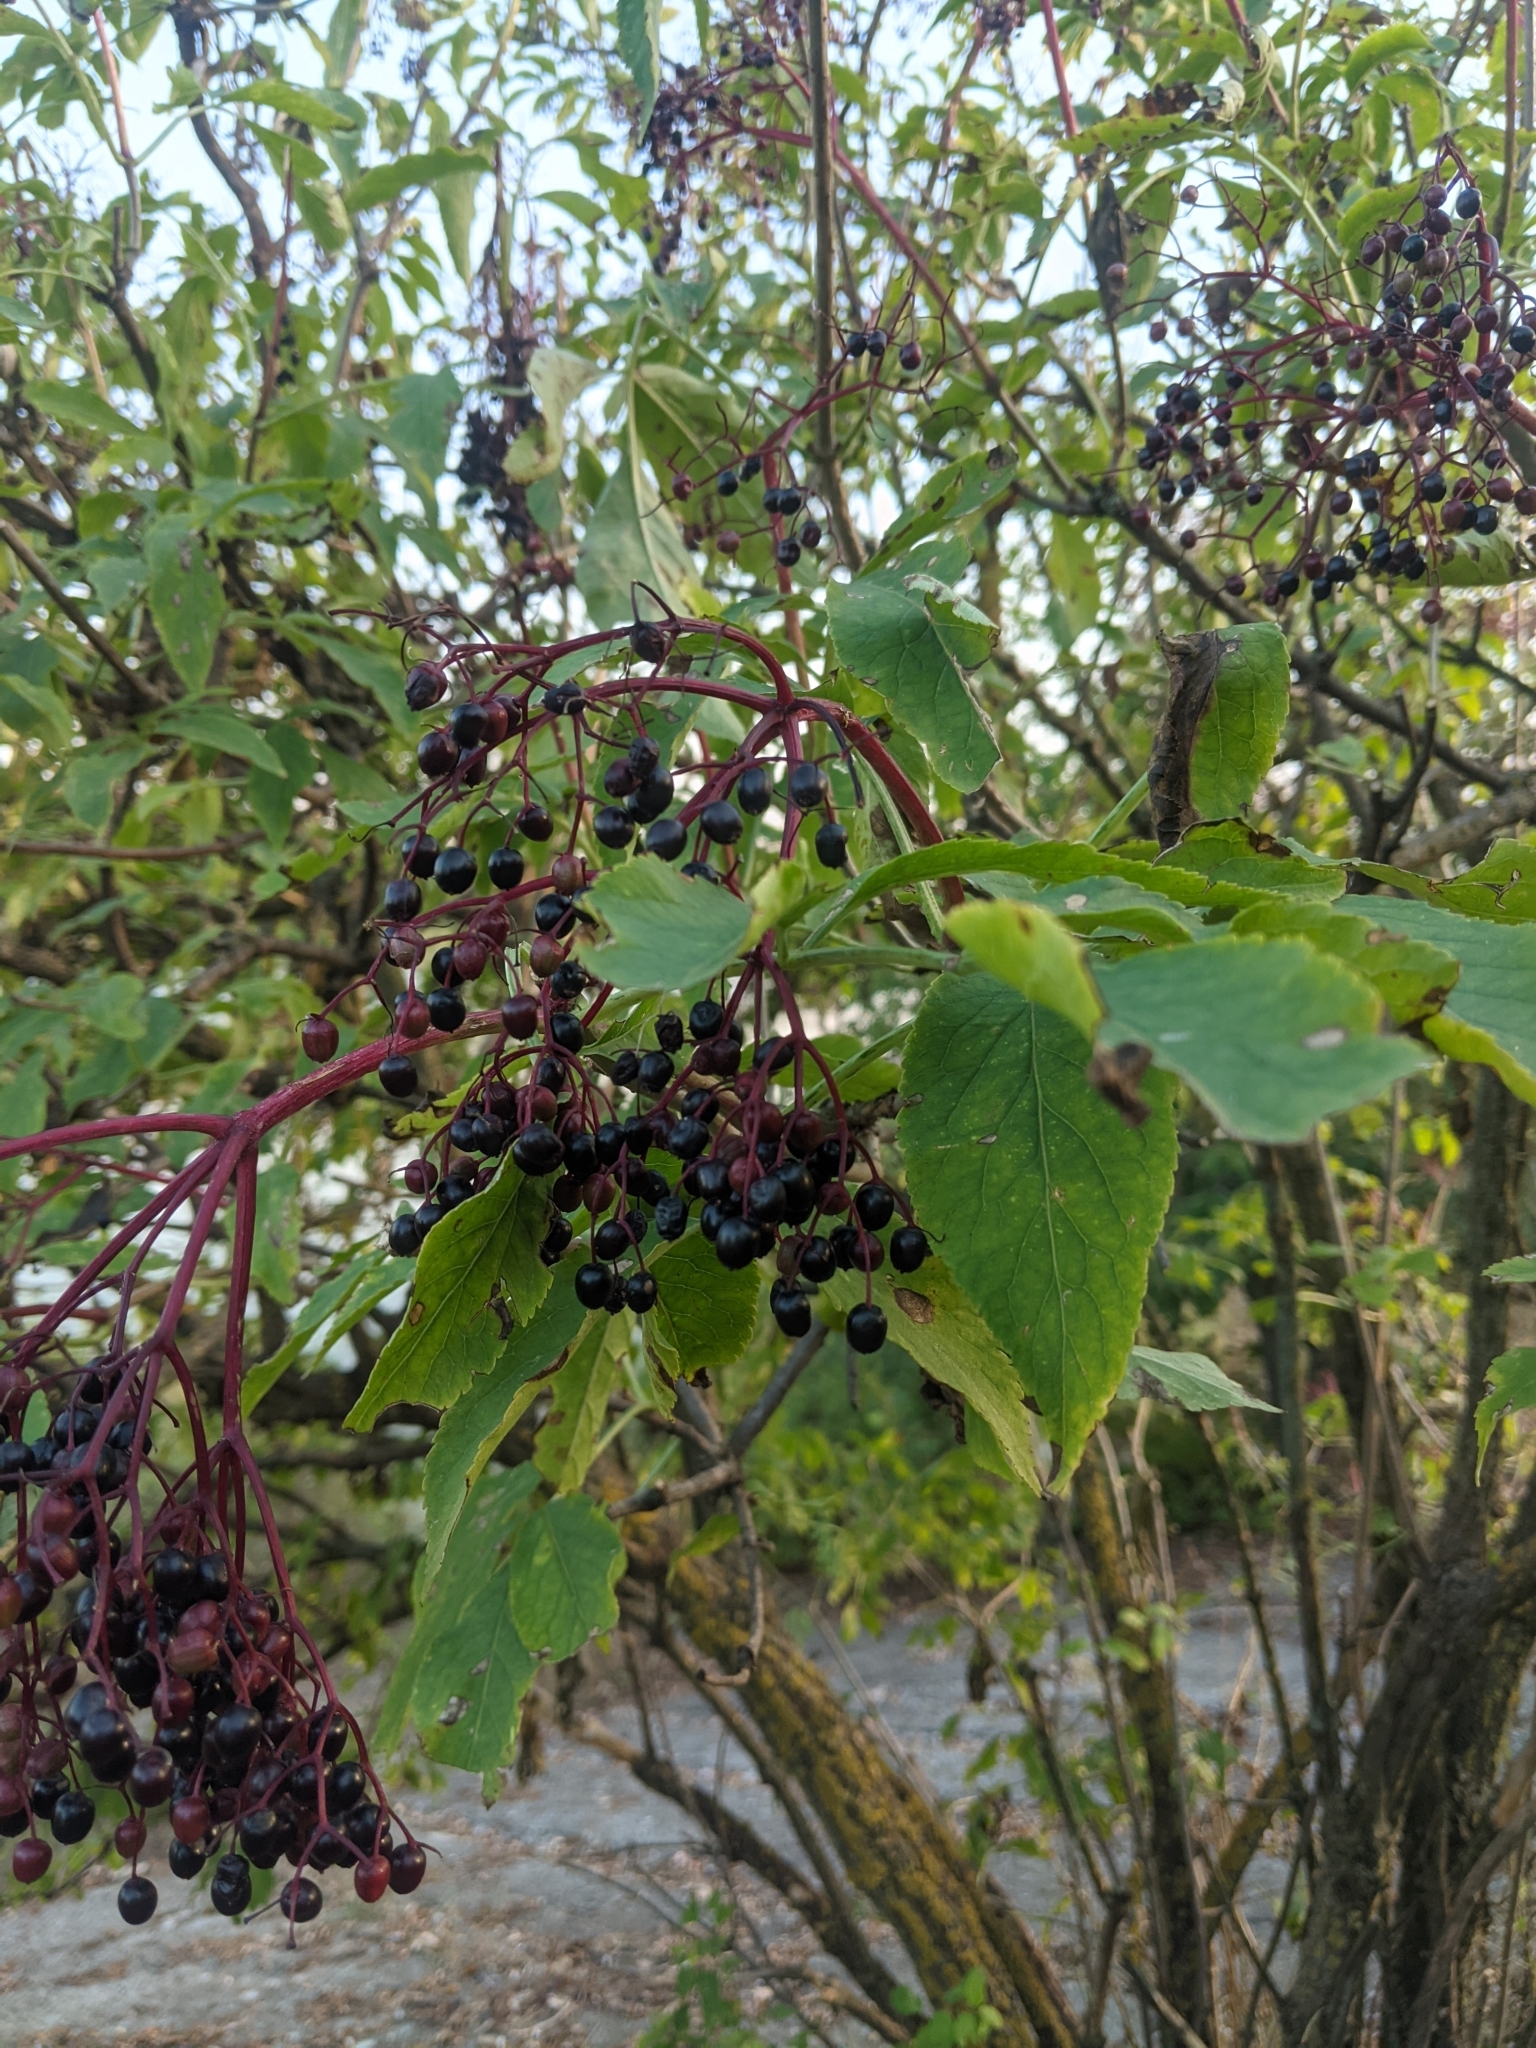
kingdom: Plantae
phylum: Tracheophyta
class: Magnoliopsida
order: Dipsacales
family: Viburnaceae
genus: Sambucus
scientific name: Sambucus nigra
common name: Elder
